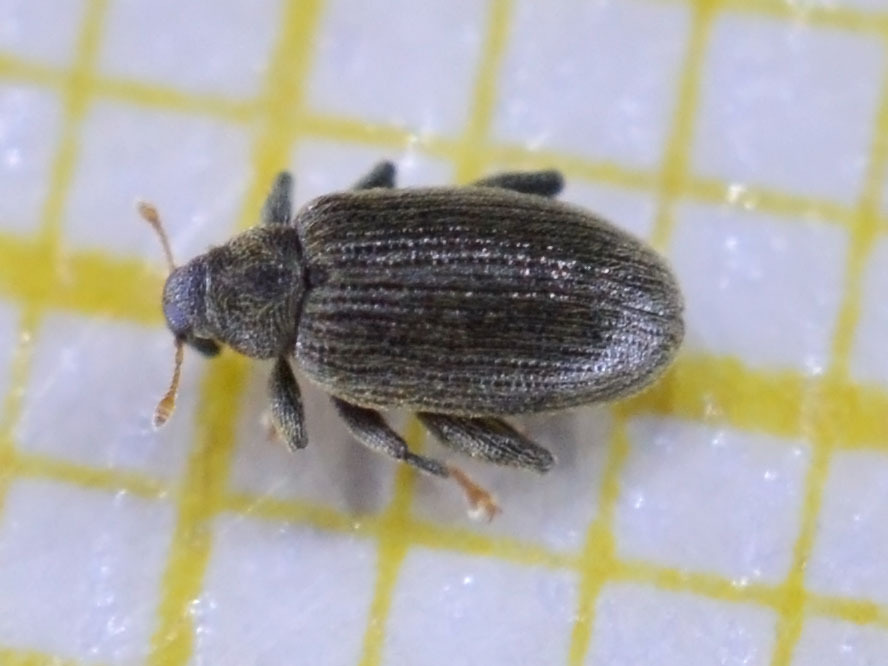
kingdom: Animalia
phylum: Arthropoda
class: Insecta
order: Coleoptera
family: Curculionidae
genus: Orchestes
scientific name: Orchestes fagi
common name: Beech leaf miner
